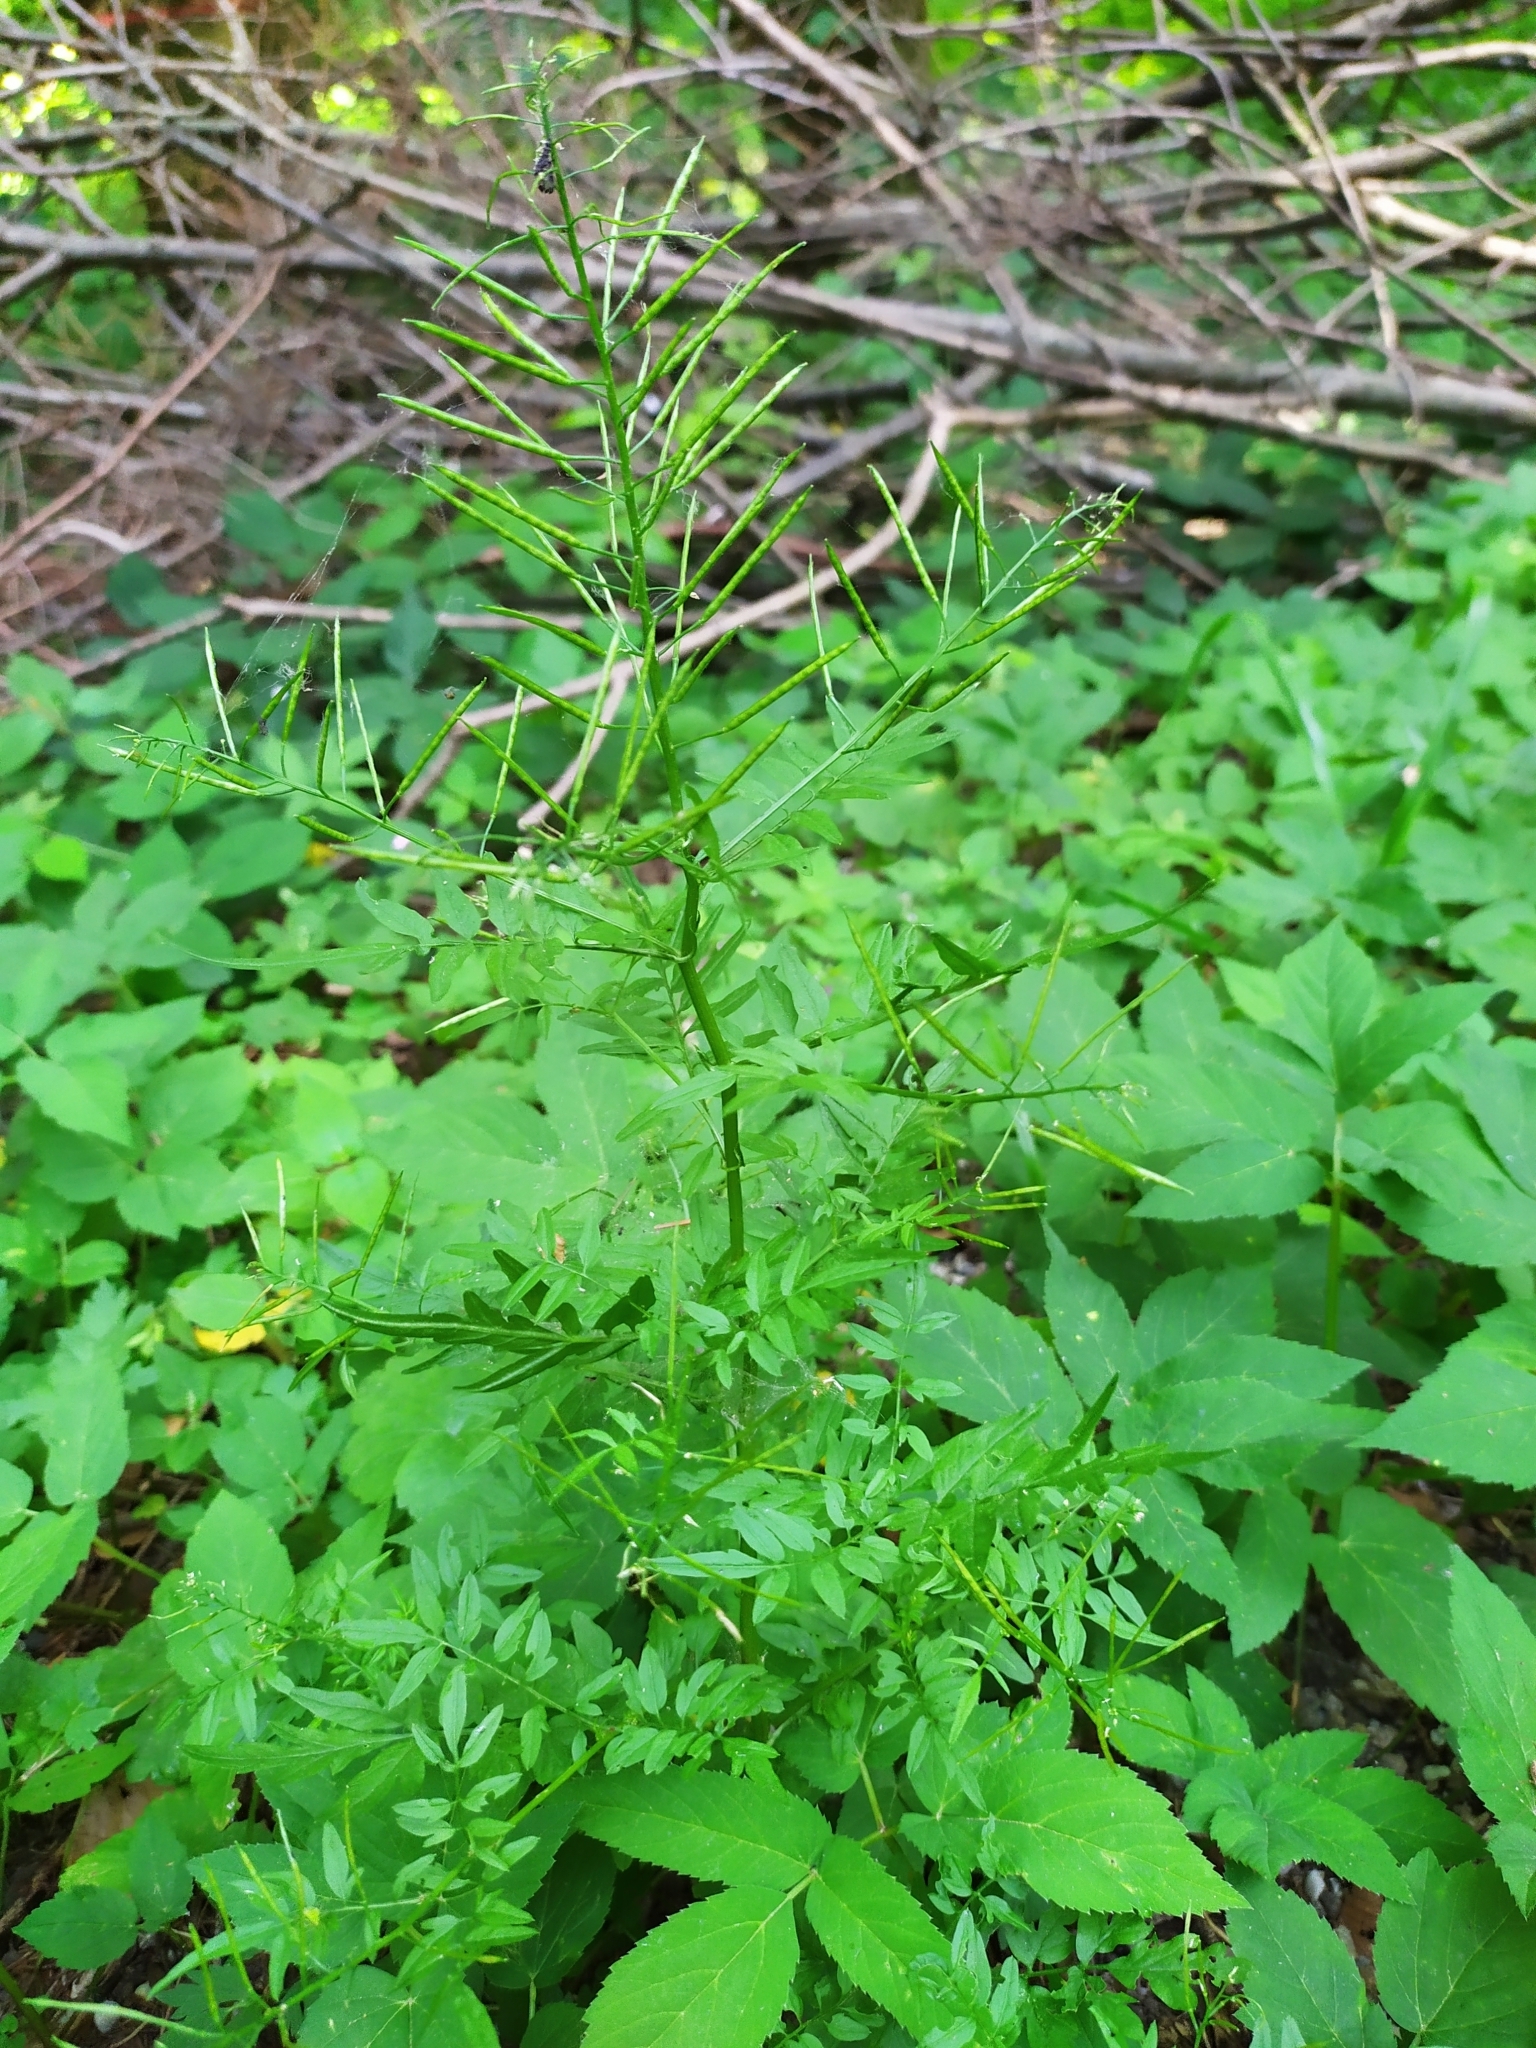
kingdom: Plantae
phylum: Tracheophyta
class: Magnoliopsida
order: Brassicales
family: Brassicaceae
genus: Cardamine
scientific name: Cardamine impatiens
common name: Narrow-leaved bitter-cress
